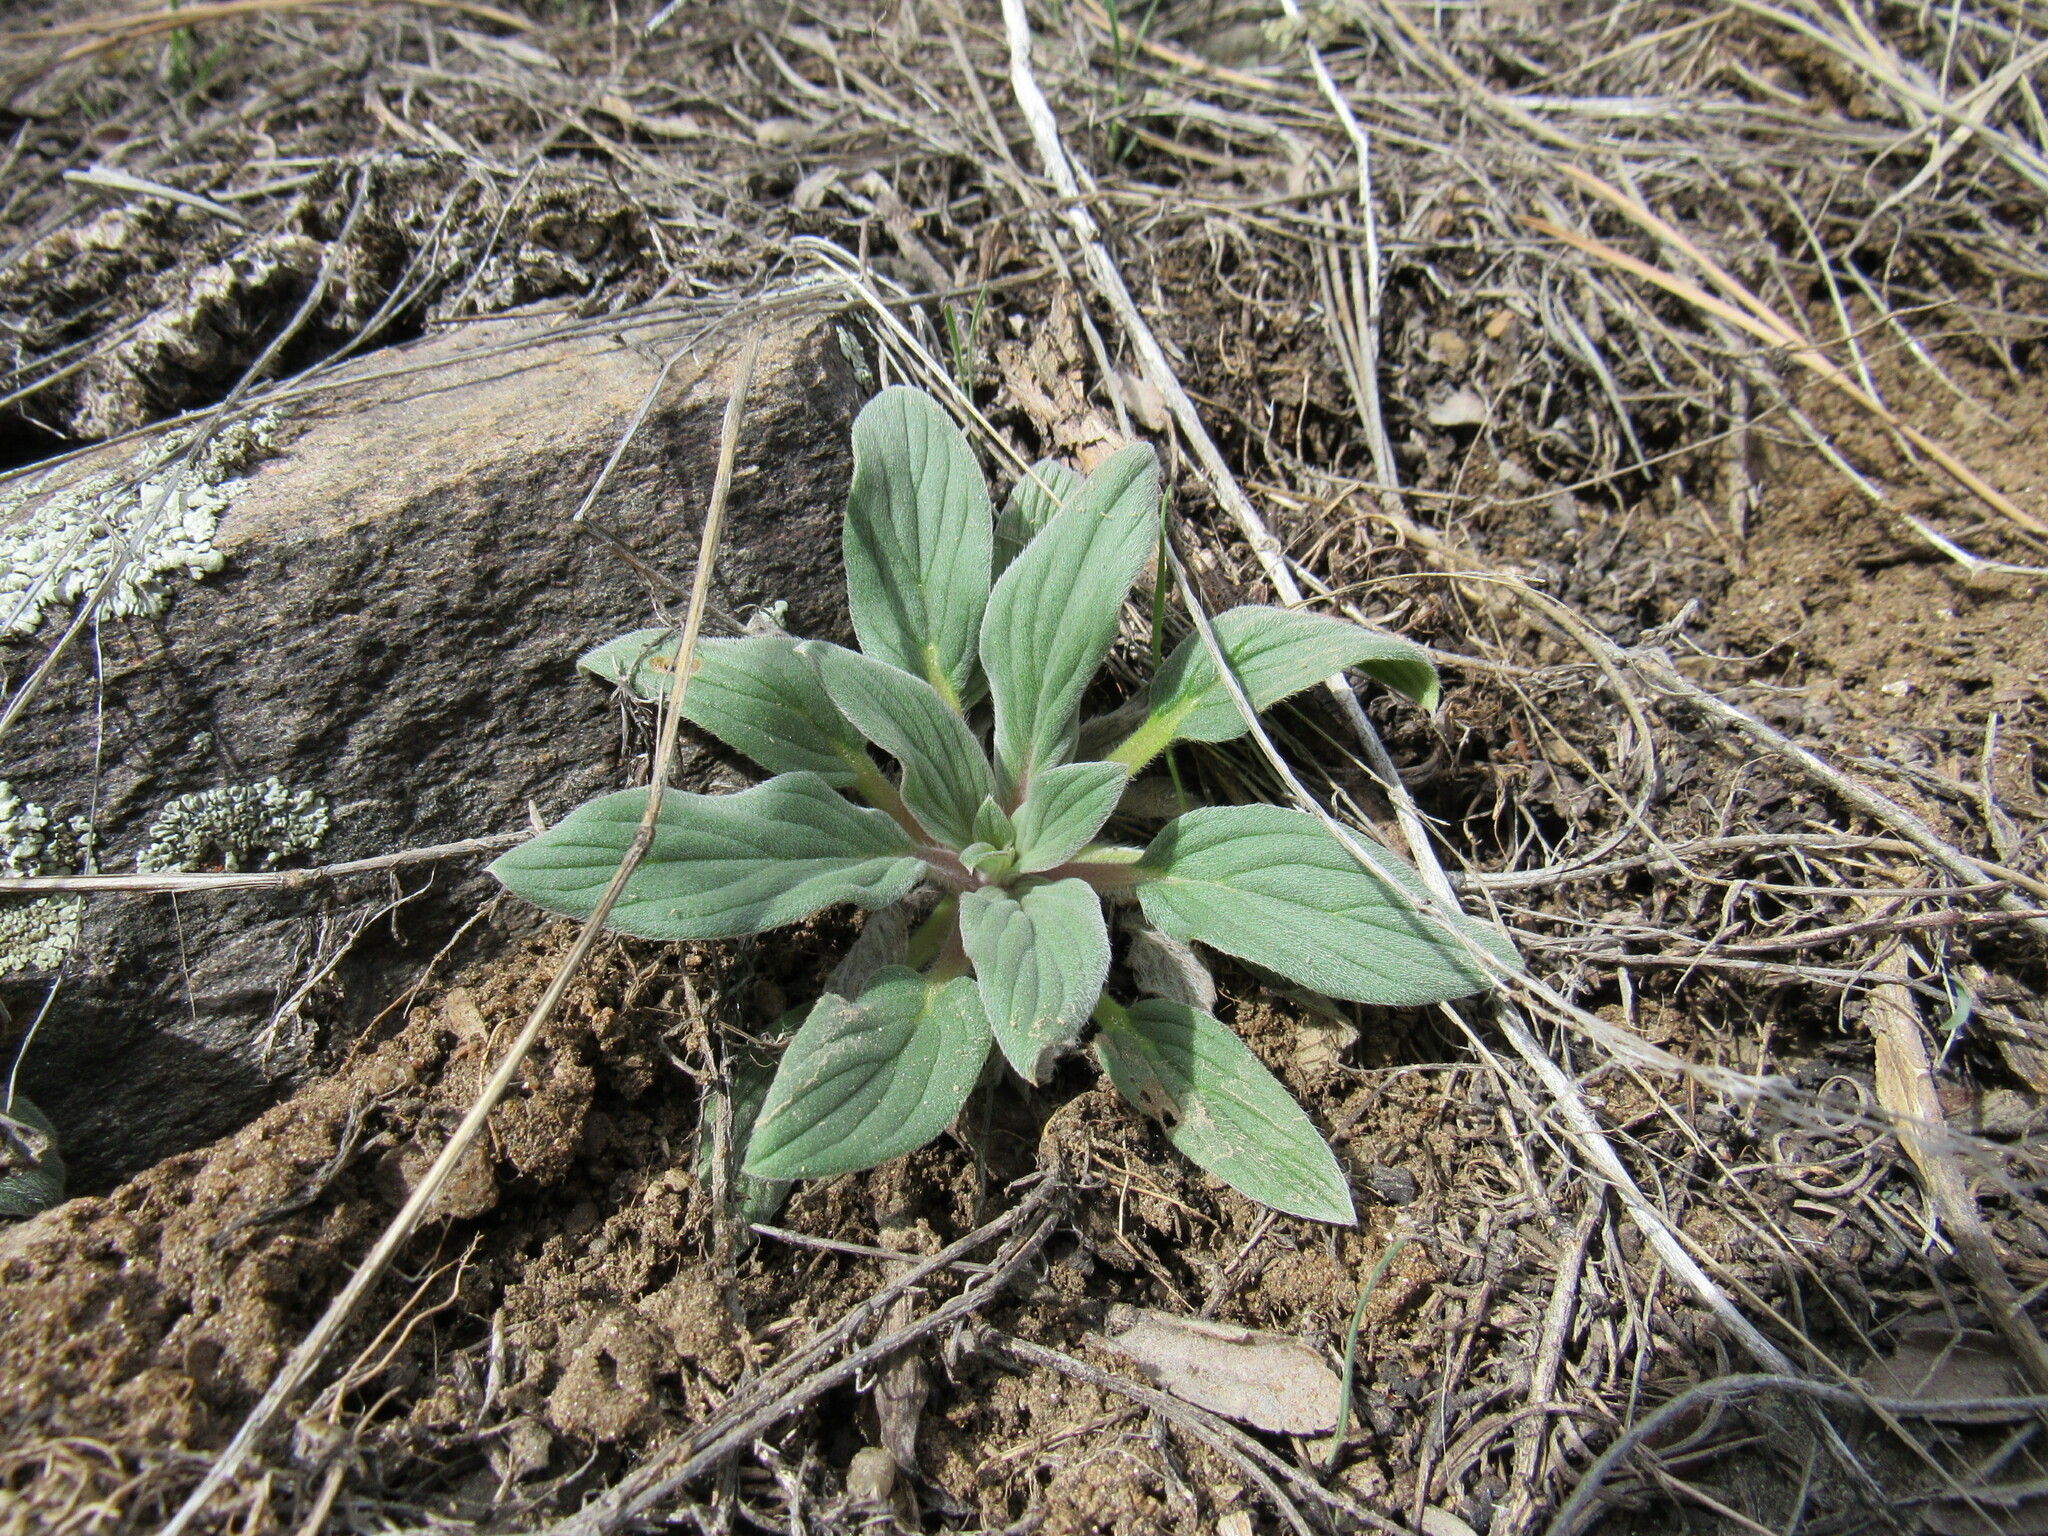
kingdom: Plantae
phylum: Tracheophyta
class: Magnoliopsida
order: Boraginales
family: Hydrophyllaceae
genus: Phacelia
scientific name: Phacelia hastata
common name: Silver-leaved phacelia
